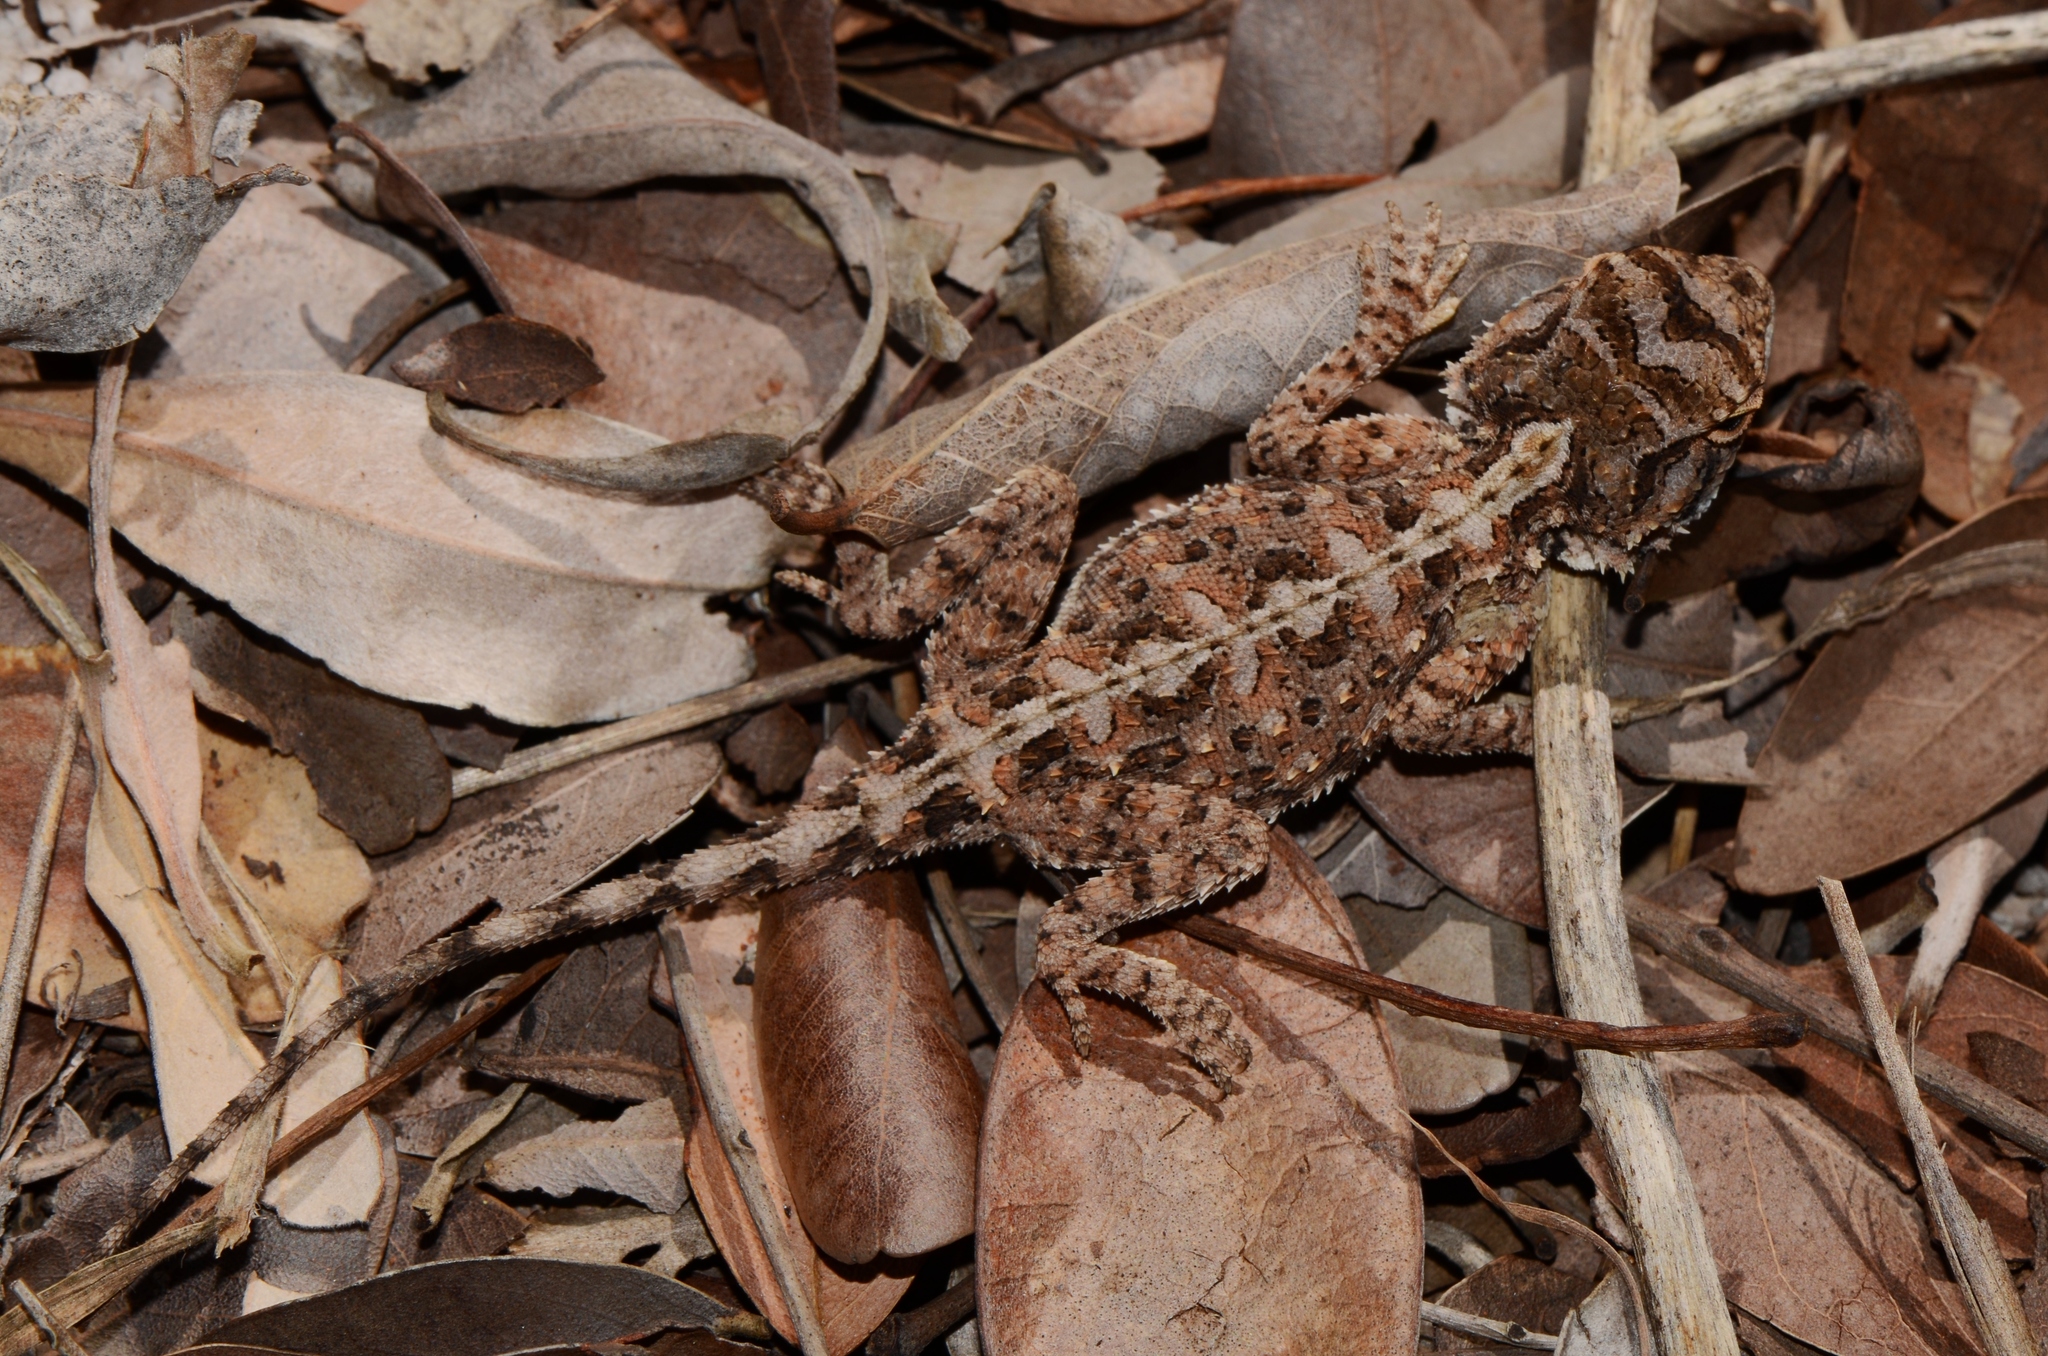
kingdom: Animalia
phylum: Chordata
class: Squamata
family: Agamidae
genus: Agama
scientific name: Agama aculeata
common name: Common ground agama
